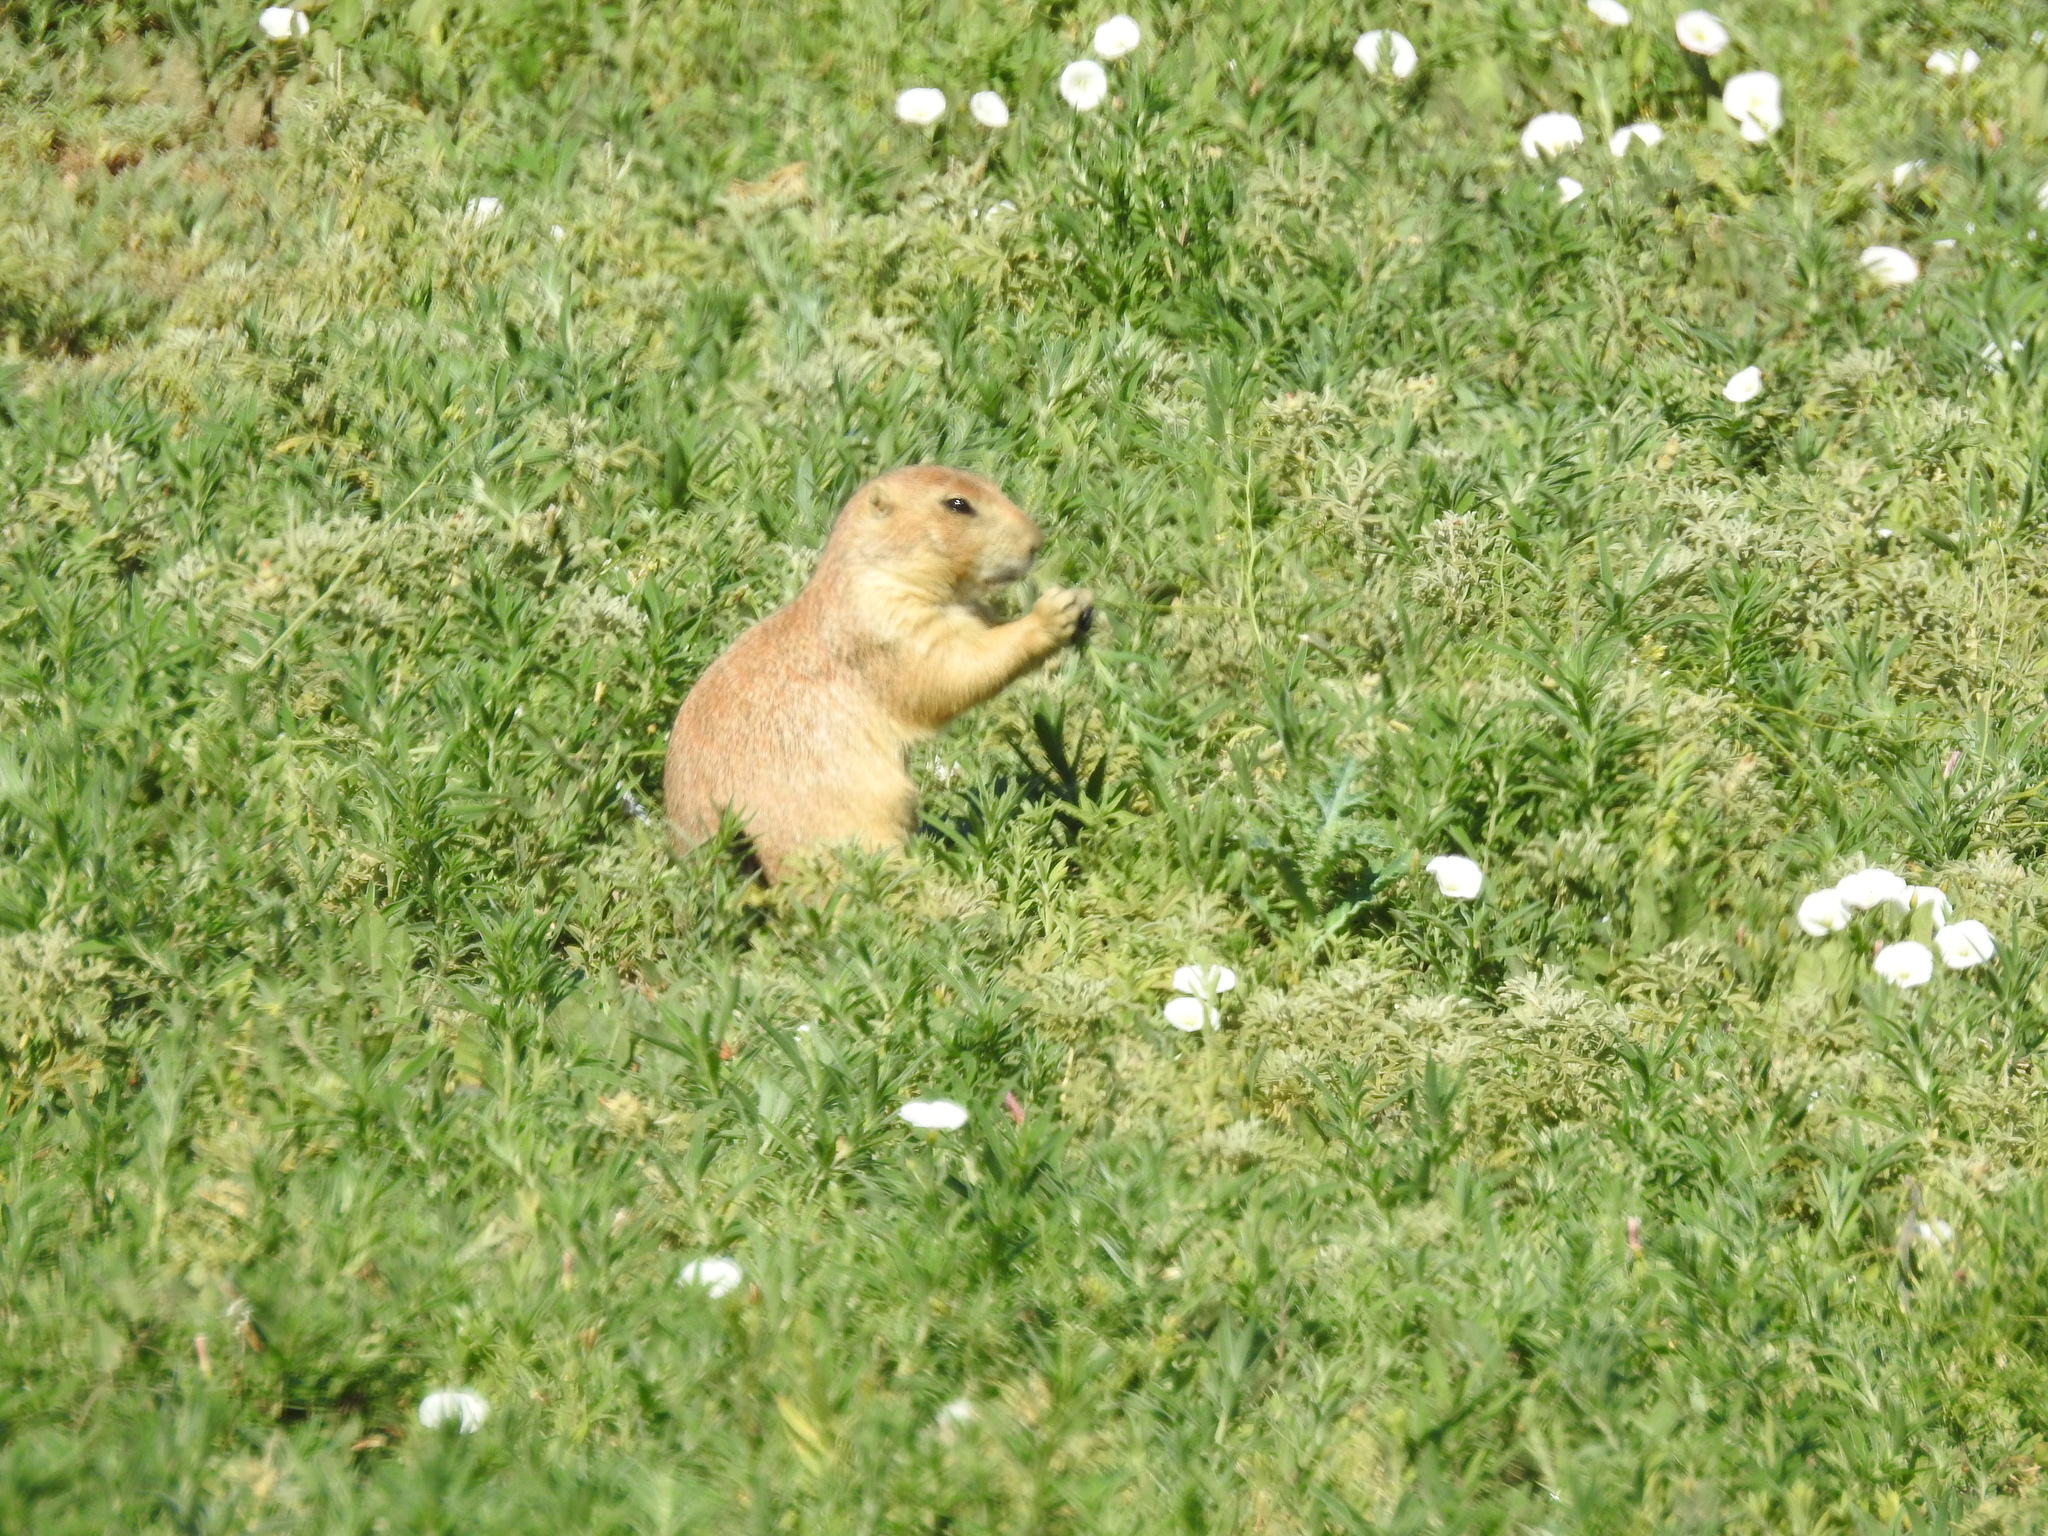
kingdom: Animalia
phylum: Chordata
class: Mammalia
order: Rodentia
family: Sciuridae
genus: Cynomys
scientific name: Cynomys ludovicianus
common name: Black-tailed prairie dog
